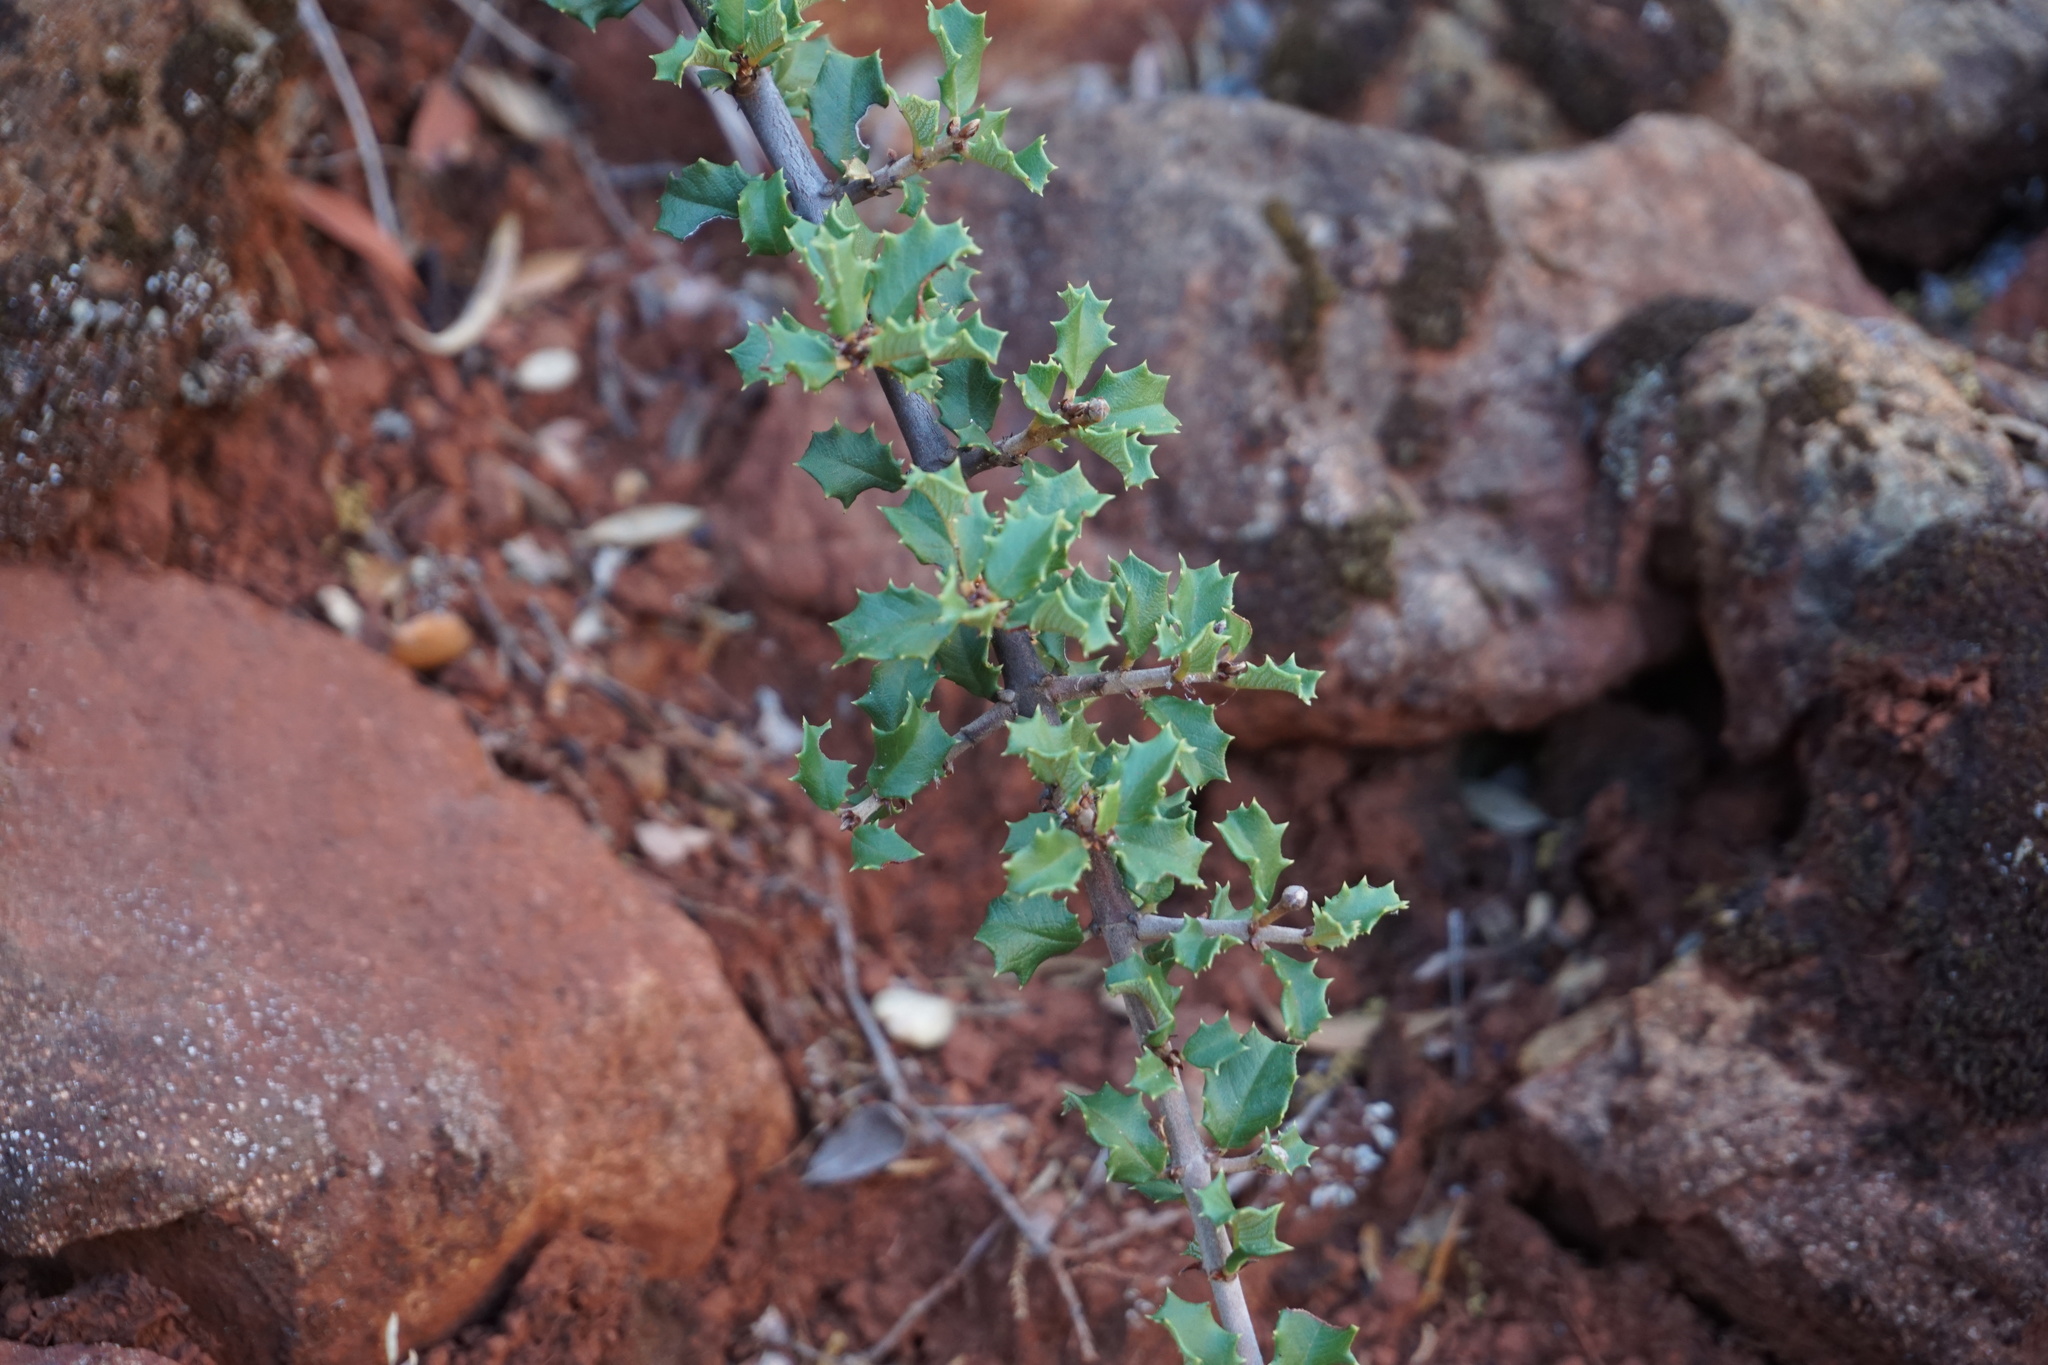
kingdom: Plantae
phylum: Tracheophyta
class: Magnoliopsida
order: Rosales
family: Rhamnaceae
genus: Ceanothus
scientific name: Ceanothus jepsonii
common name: Muskbrush
